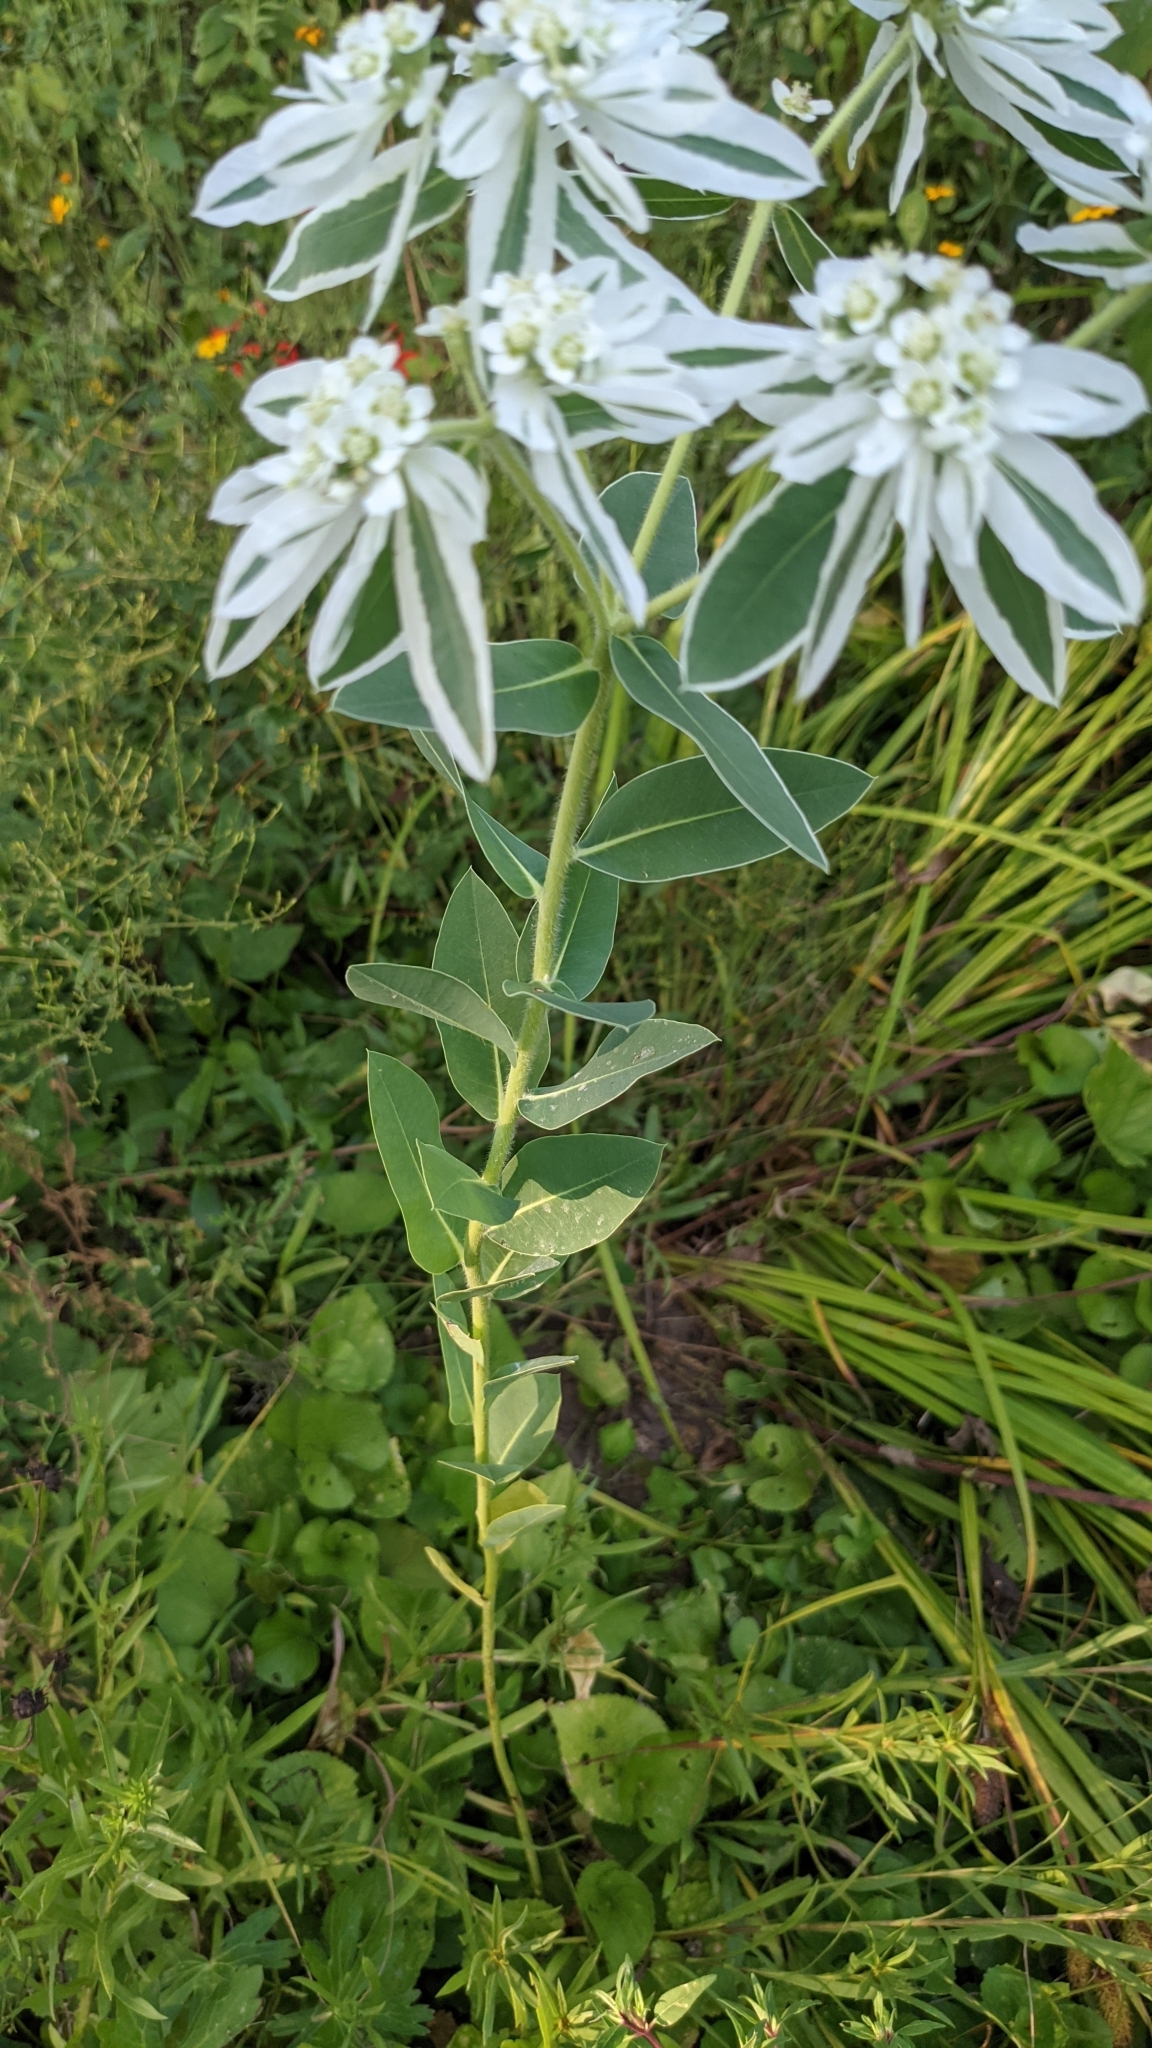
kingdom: Plantae
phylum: Tracheophyta
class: Magnoliopsida
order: Malpighiales
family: Euphorbiaceae
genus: Euphorbia
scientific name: Euphorbia marginata
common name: Ghostweed
